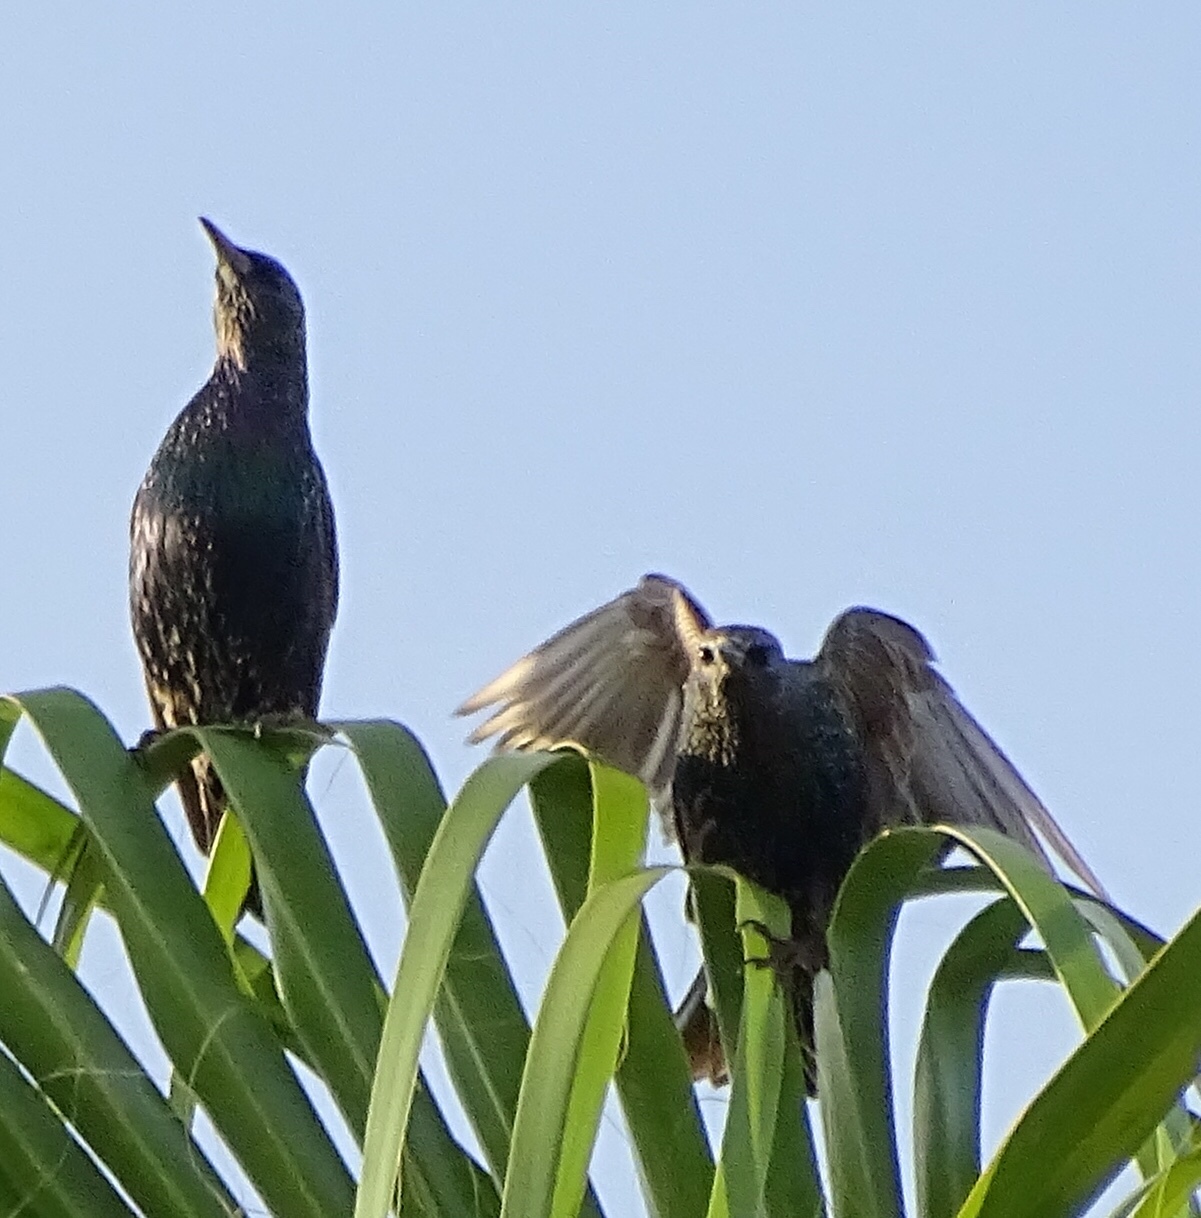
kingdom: Animalia
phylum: Chordata
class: Aves
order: Passeriformes
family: Sturnidae
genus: Sturnus
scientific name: Sturnus vulgaris
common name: Common starling
